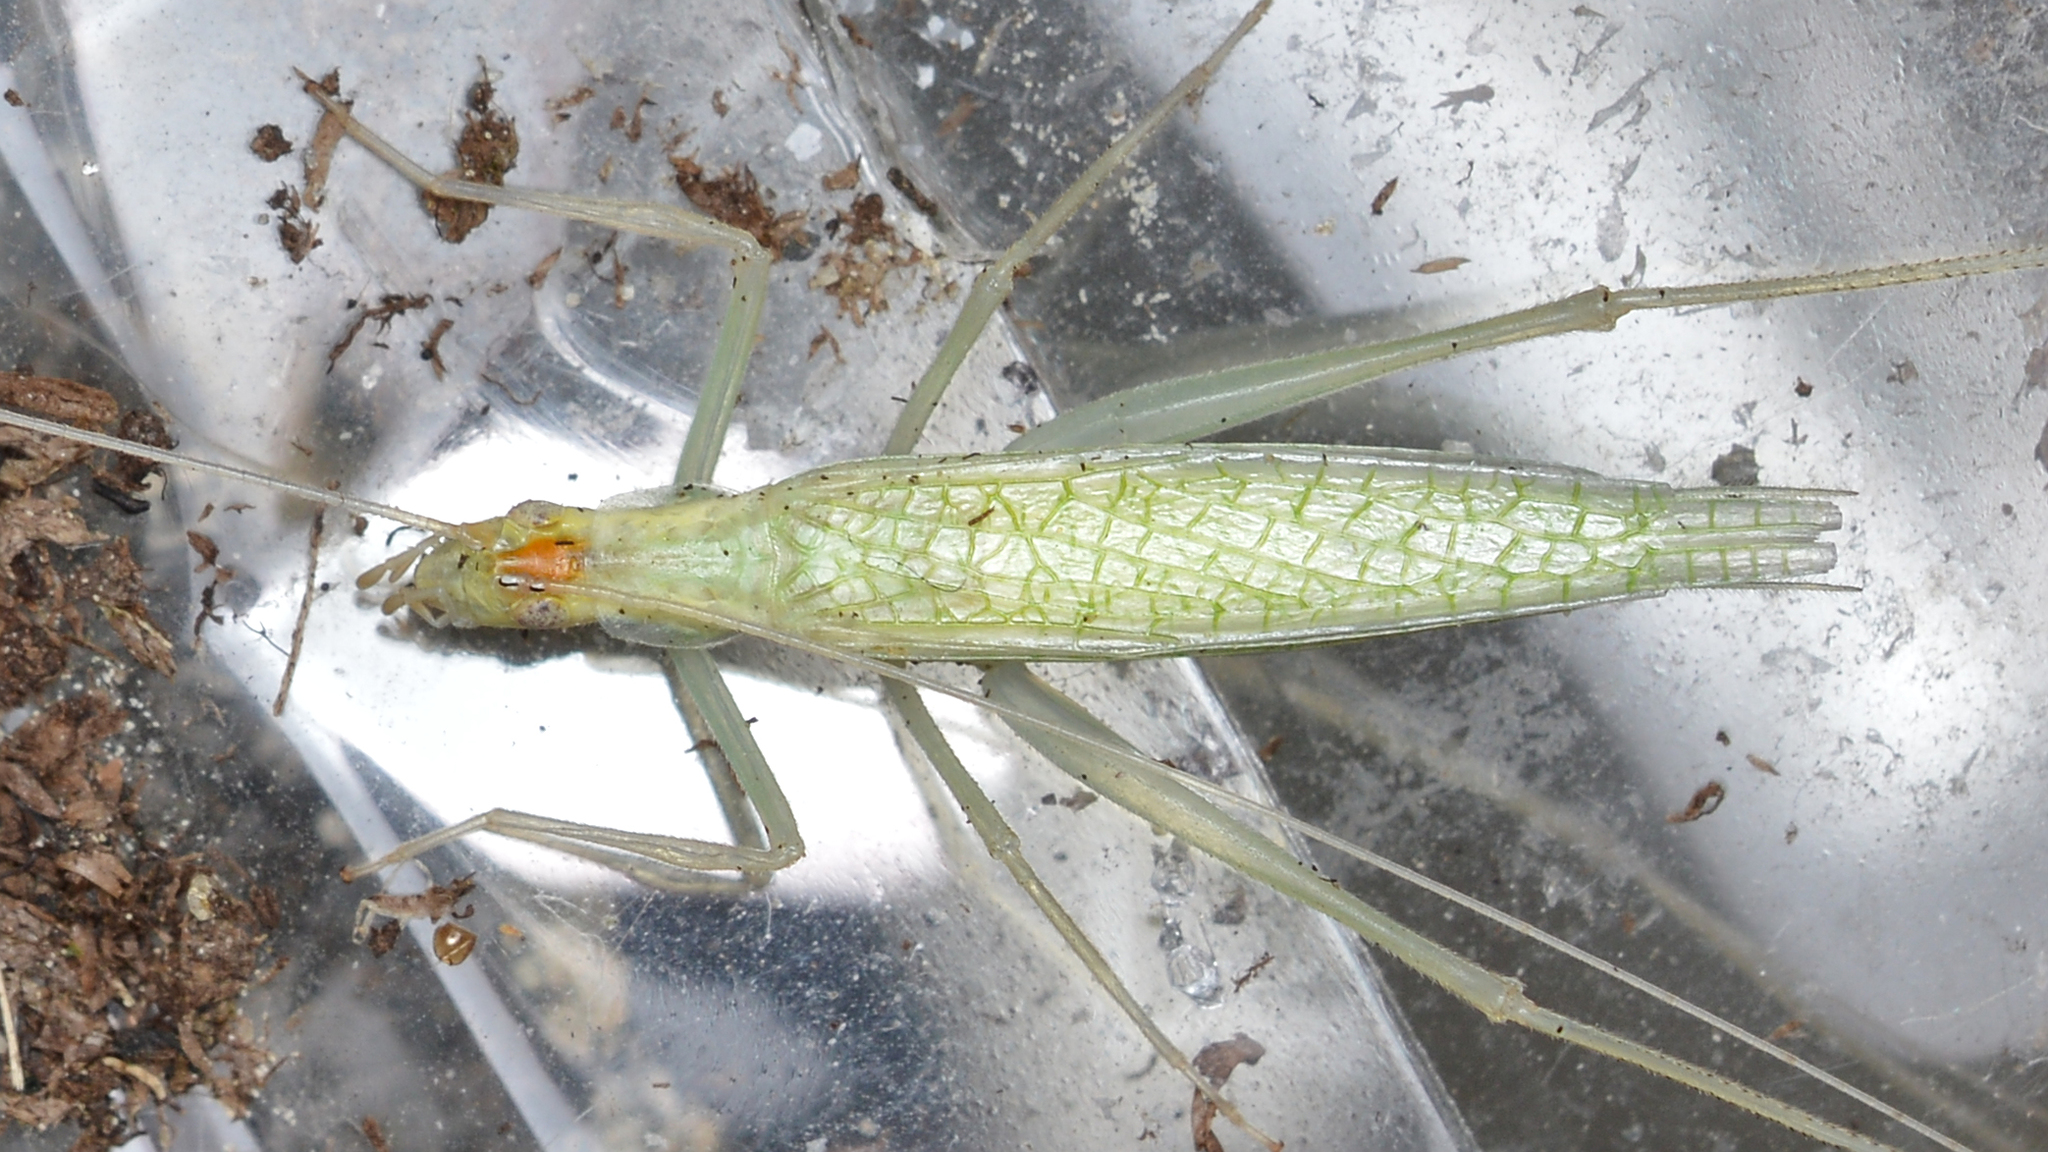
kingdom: Animalia
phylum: Arthropoda
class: Insecta
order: Orthoptera
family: Gryllidae
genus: Oecanthus
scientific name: Oecanthus niveus
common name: Narrow-winged tree cricket
